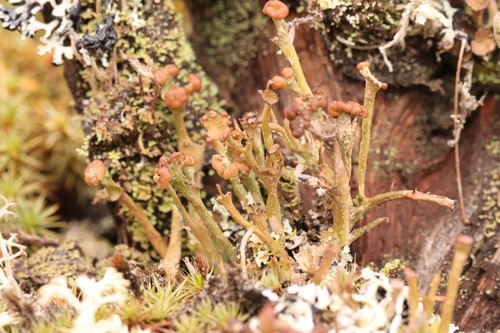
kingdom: Fungi
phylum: Ascomycota
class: Lecanoromycetes
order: Lecanorales
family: Cladoniaceae
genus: Cladonia
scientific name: Cladonia gracilis
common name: Smooth clad lichen
